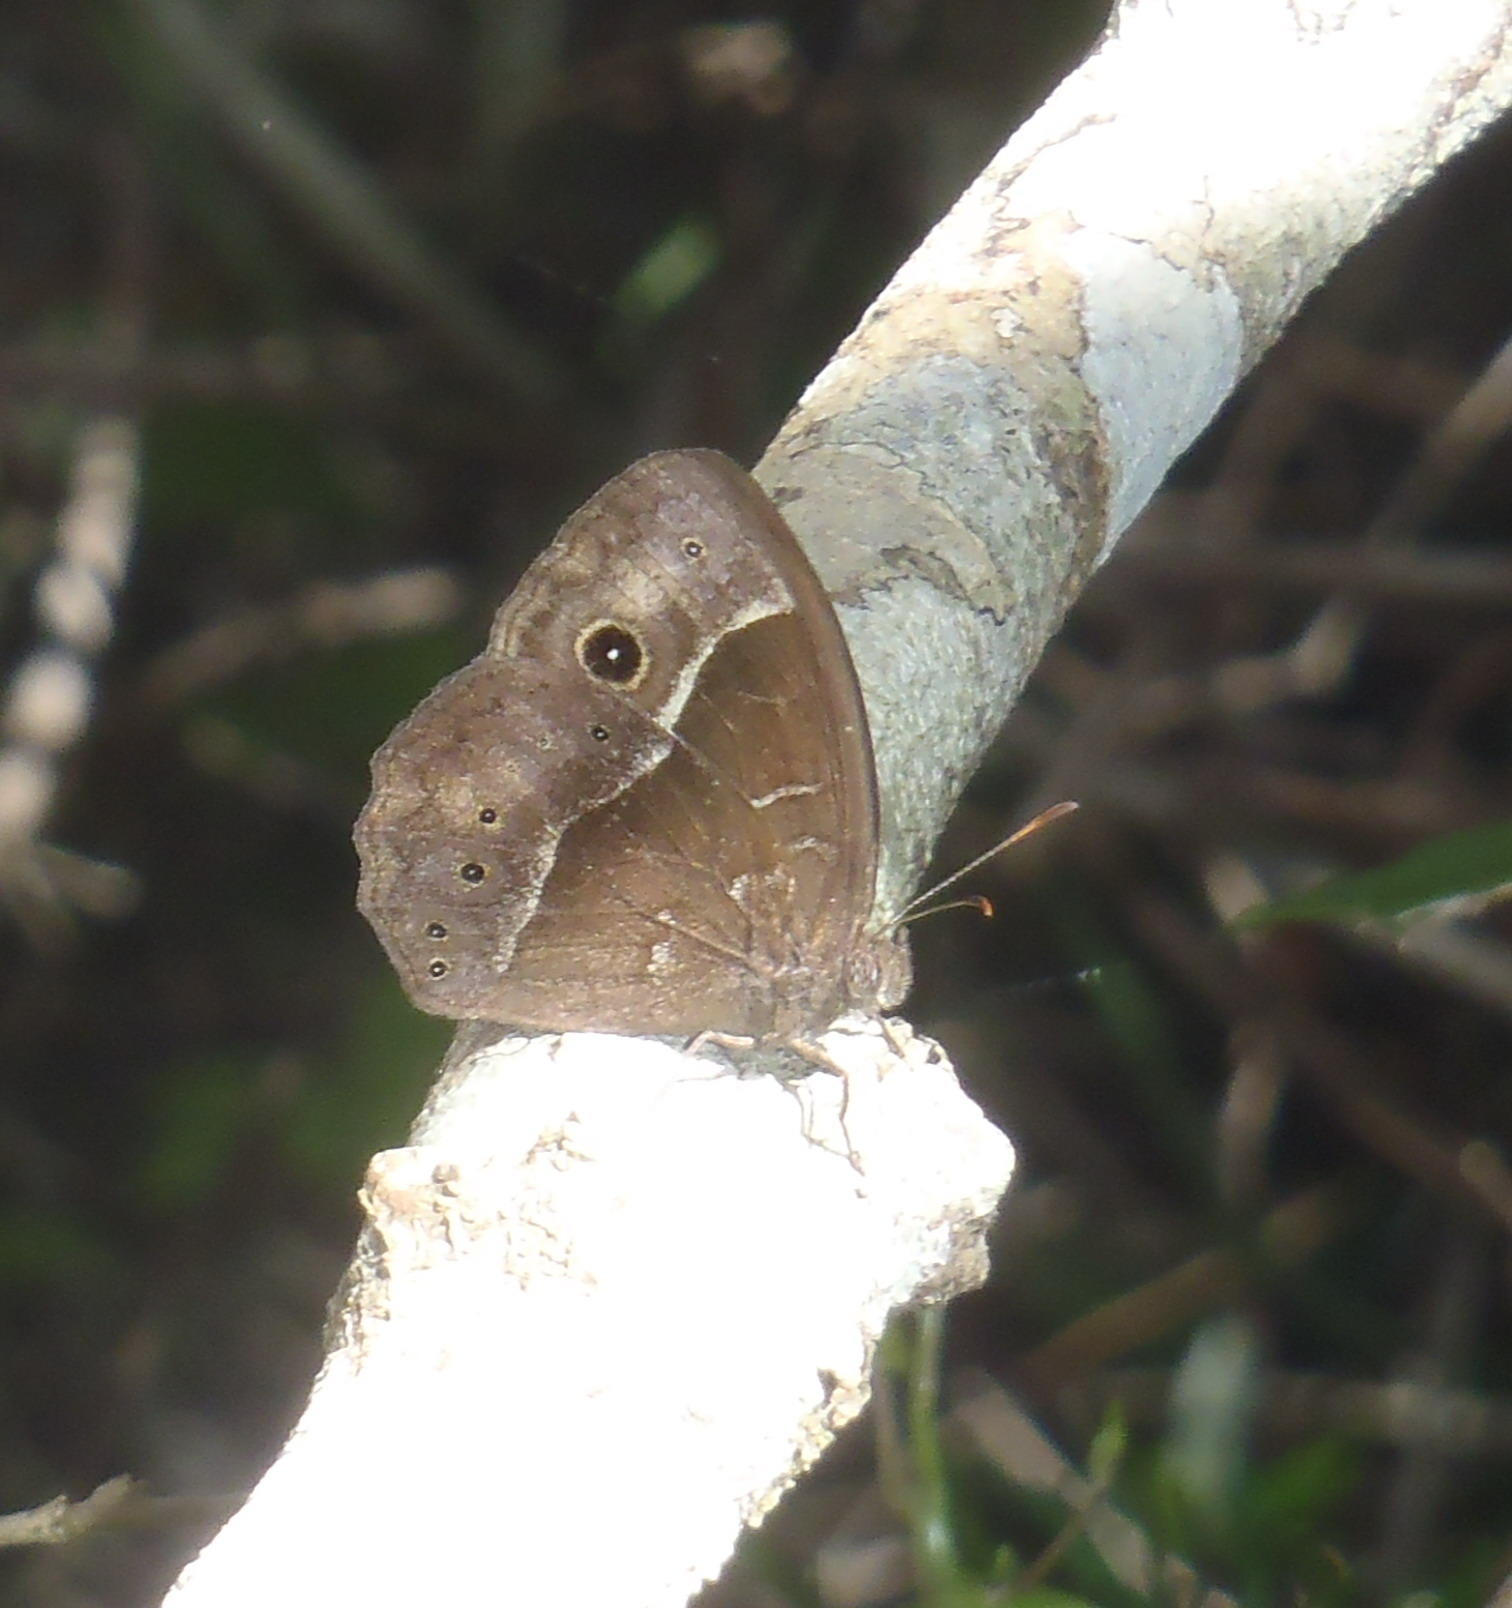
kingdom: Animalia
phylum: Arthropoda
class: Insecta
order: Lepidoptera
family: Nymphalidae
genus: Mycalesis
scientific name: Mycalesis rhacotis
